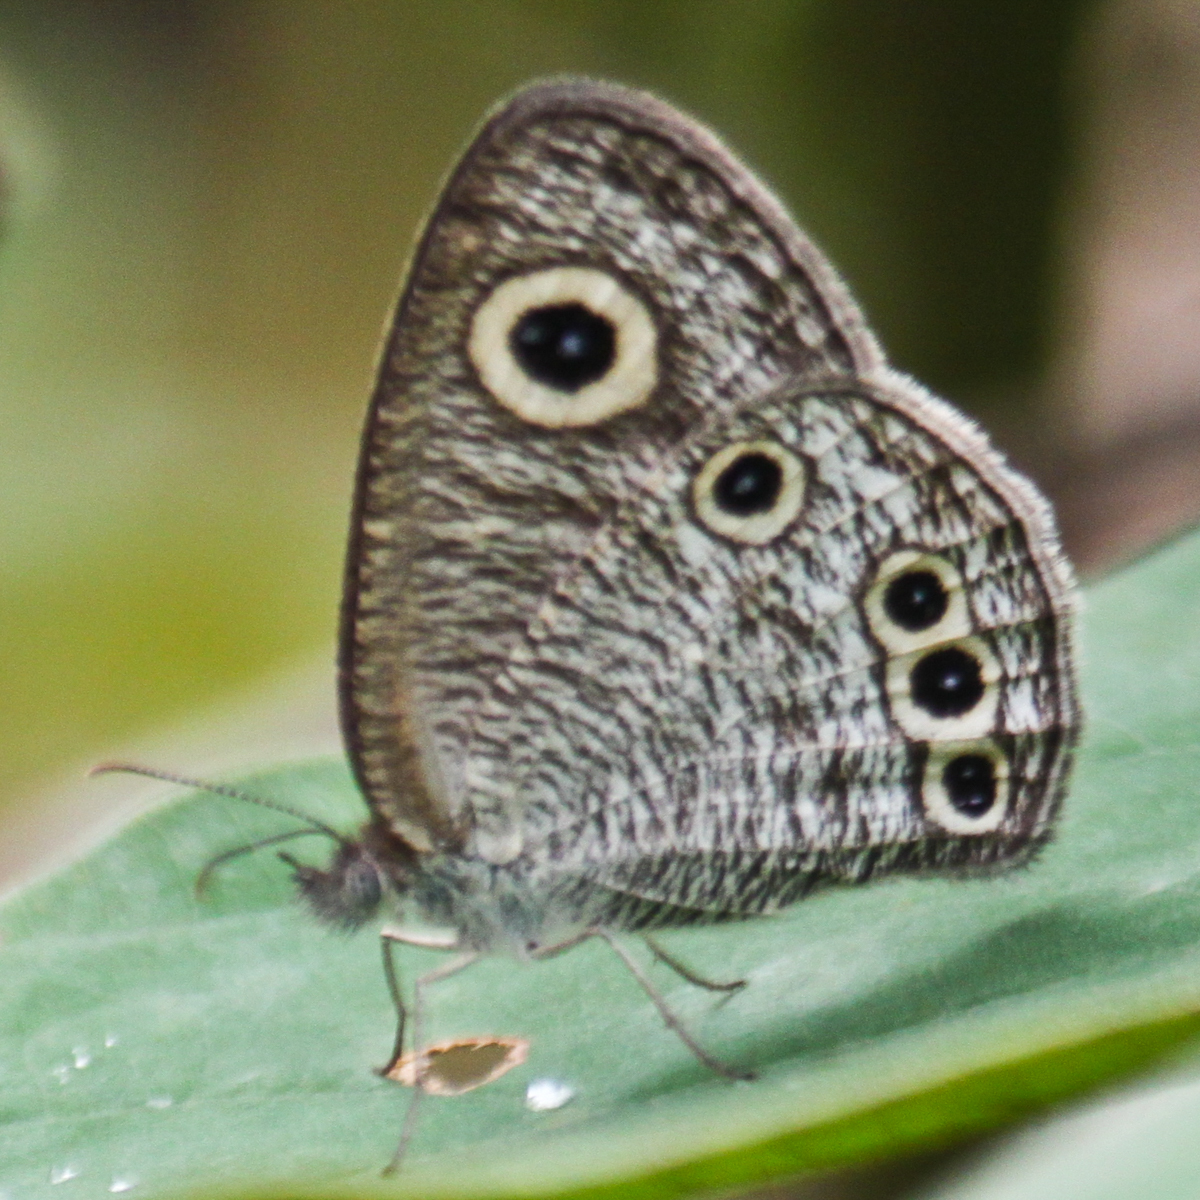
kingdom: Animalia
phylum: Arthropoda
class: Insecta
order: Lepidoptera
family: Nymphalidae
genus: Ypthima
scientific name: Ypthima huebneri
